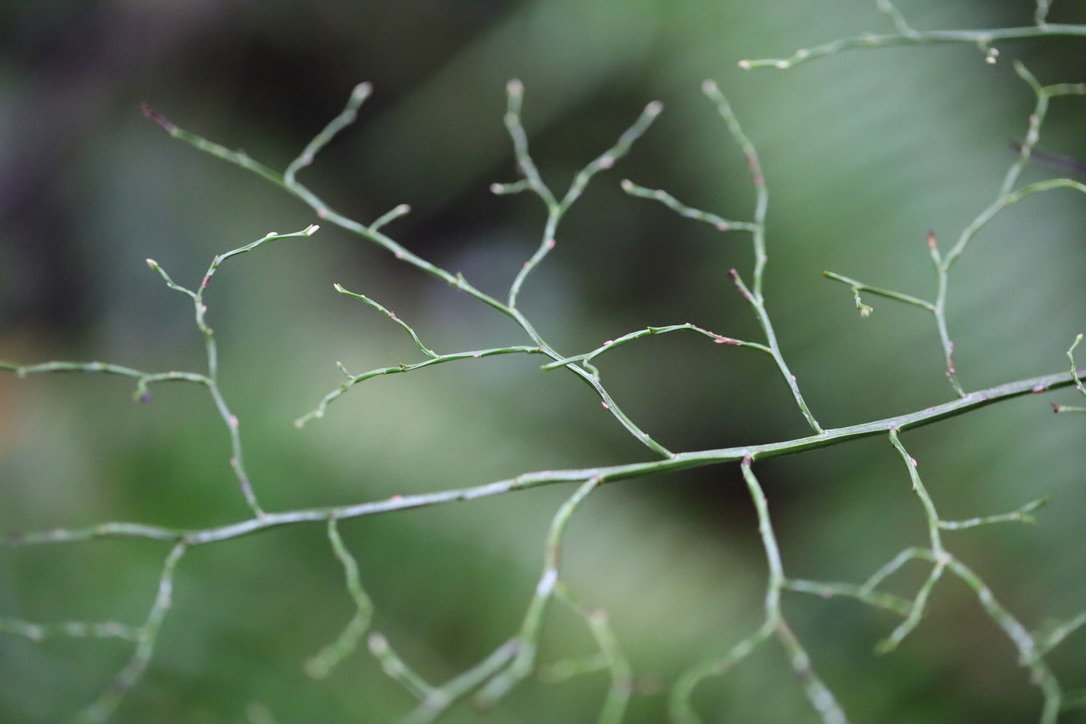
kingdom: Plantae
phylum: Tracheophyta
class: Magnoliopsida
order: Ericales
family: Ericaceae
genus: Vaccinium
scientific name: Vaccinium parvifolium
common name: Red-huckleberry
